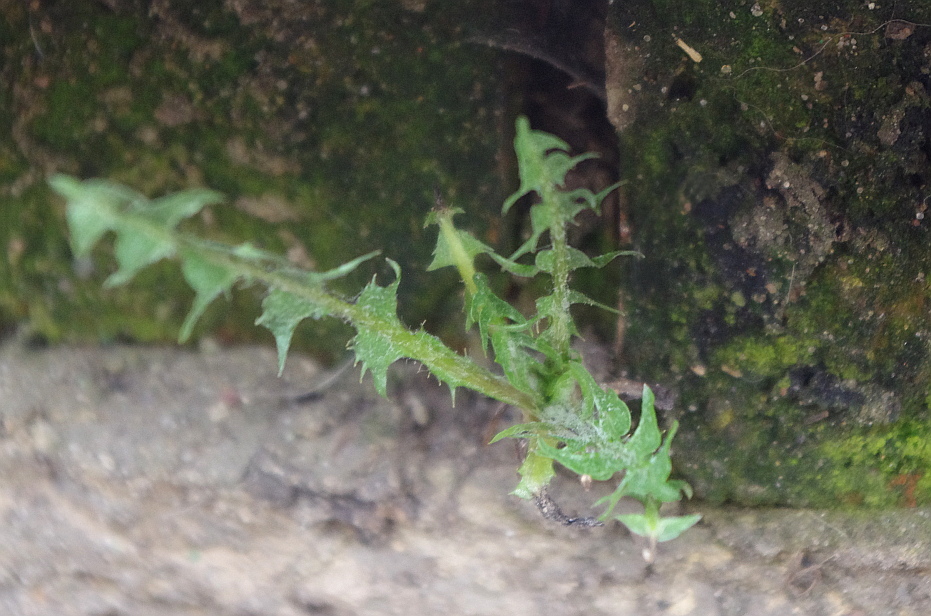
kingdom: Plantae
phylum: Tracheophyta
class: Magnoliopsida
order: Asterales
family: Asteraceae
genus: Taraxacum
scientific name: Taraxacum officinale
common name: Common dandelion
